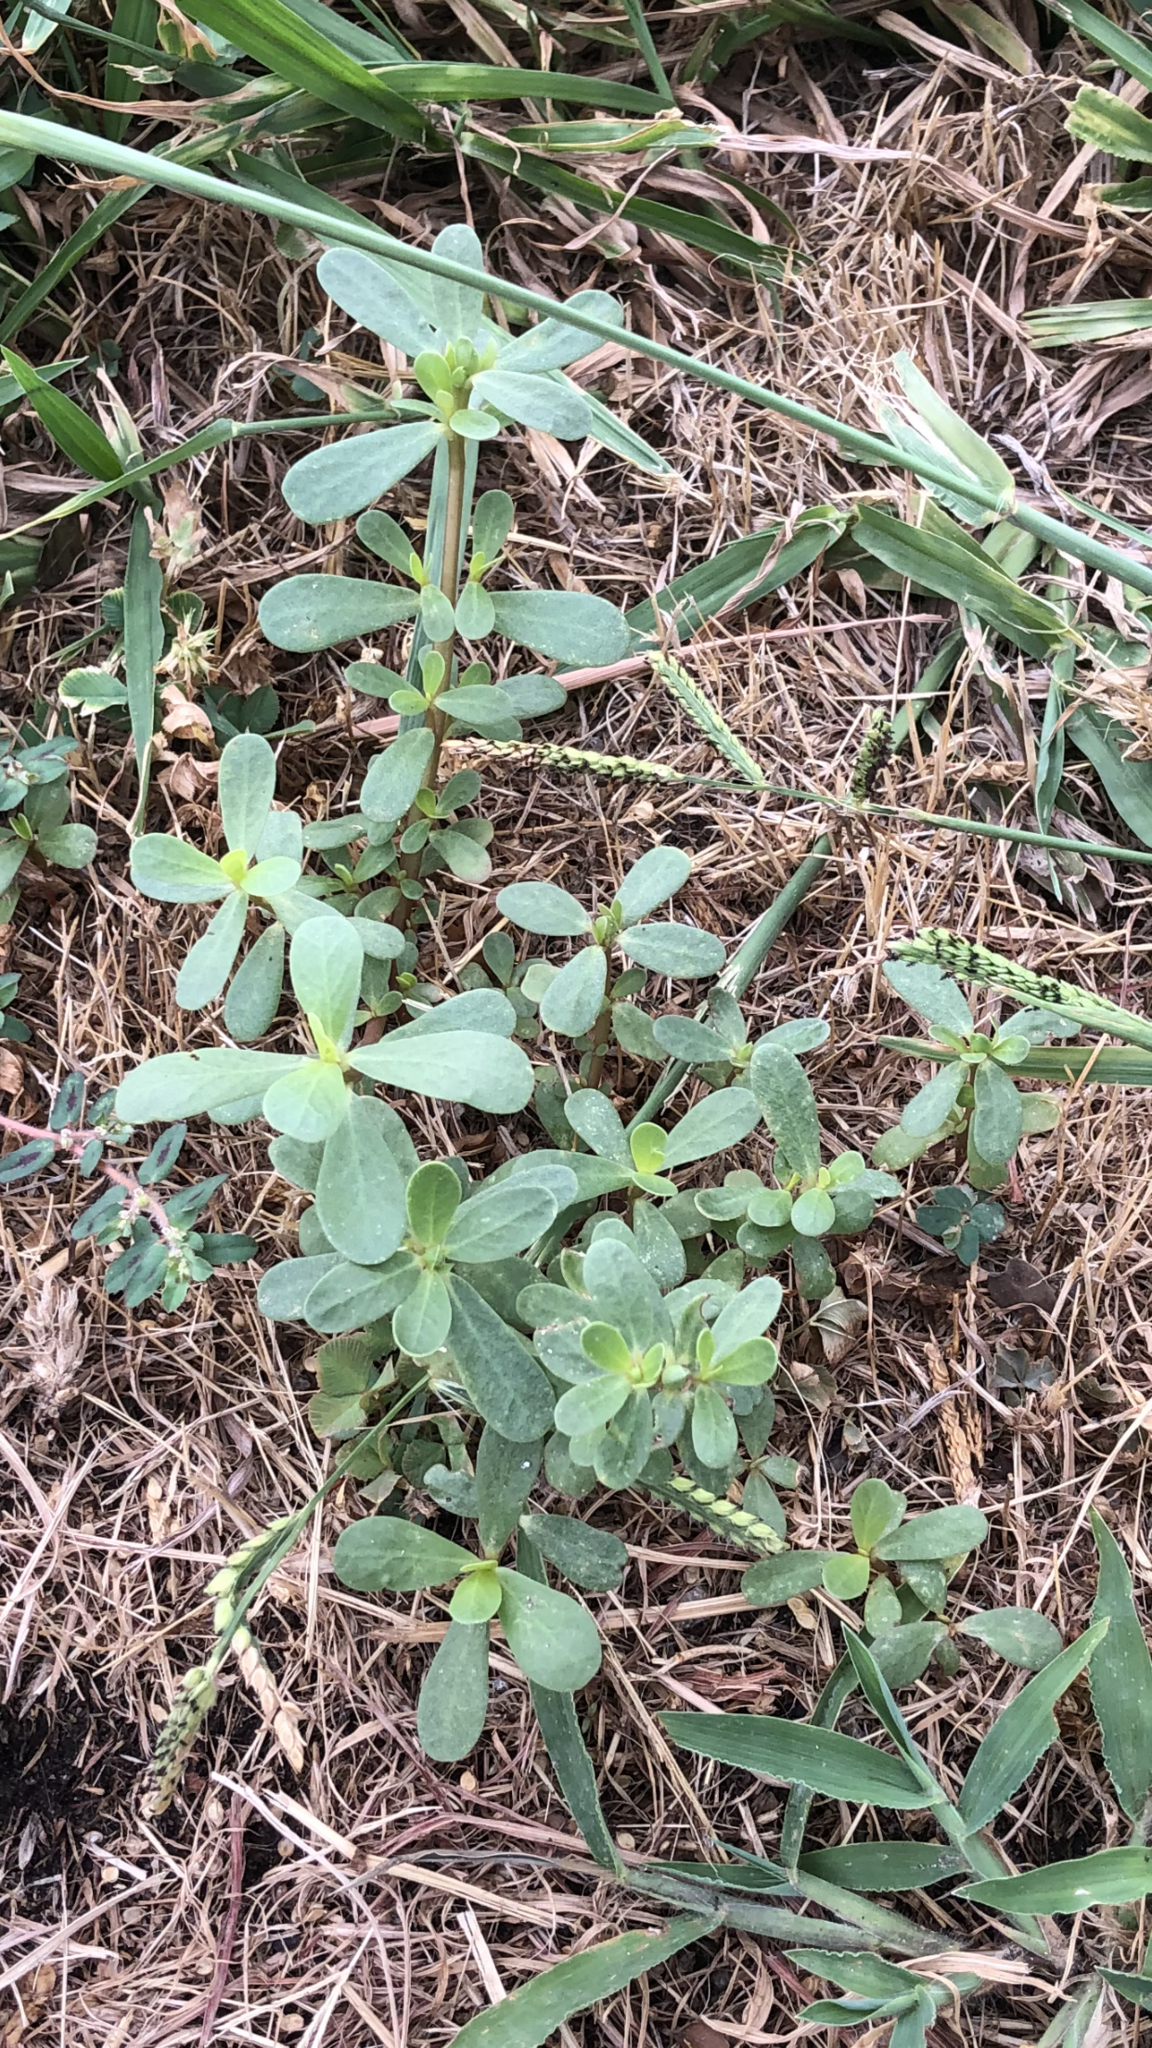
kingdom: Plantae
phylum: Tracheophyta
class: Magnoliopsida
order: Caryophyllales
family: Portulacaceae
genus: Portulaca
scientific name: Portulaca oleracea
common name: Common purslane
